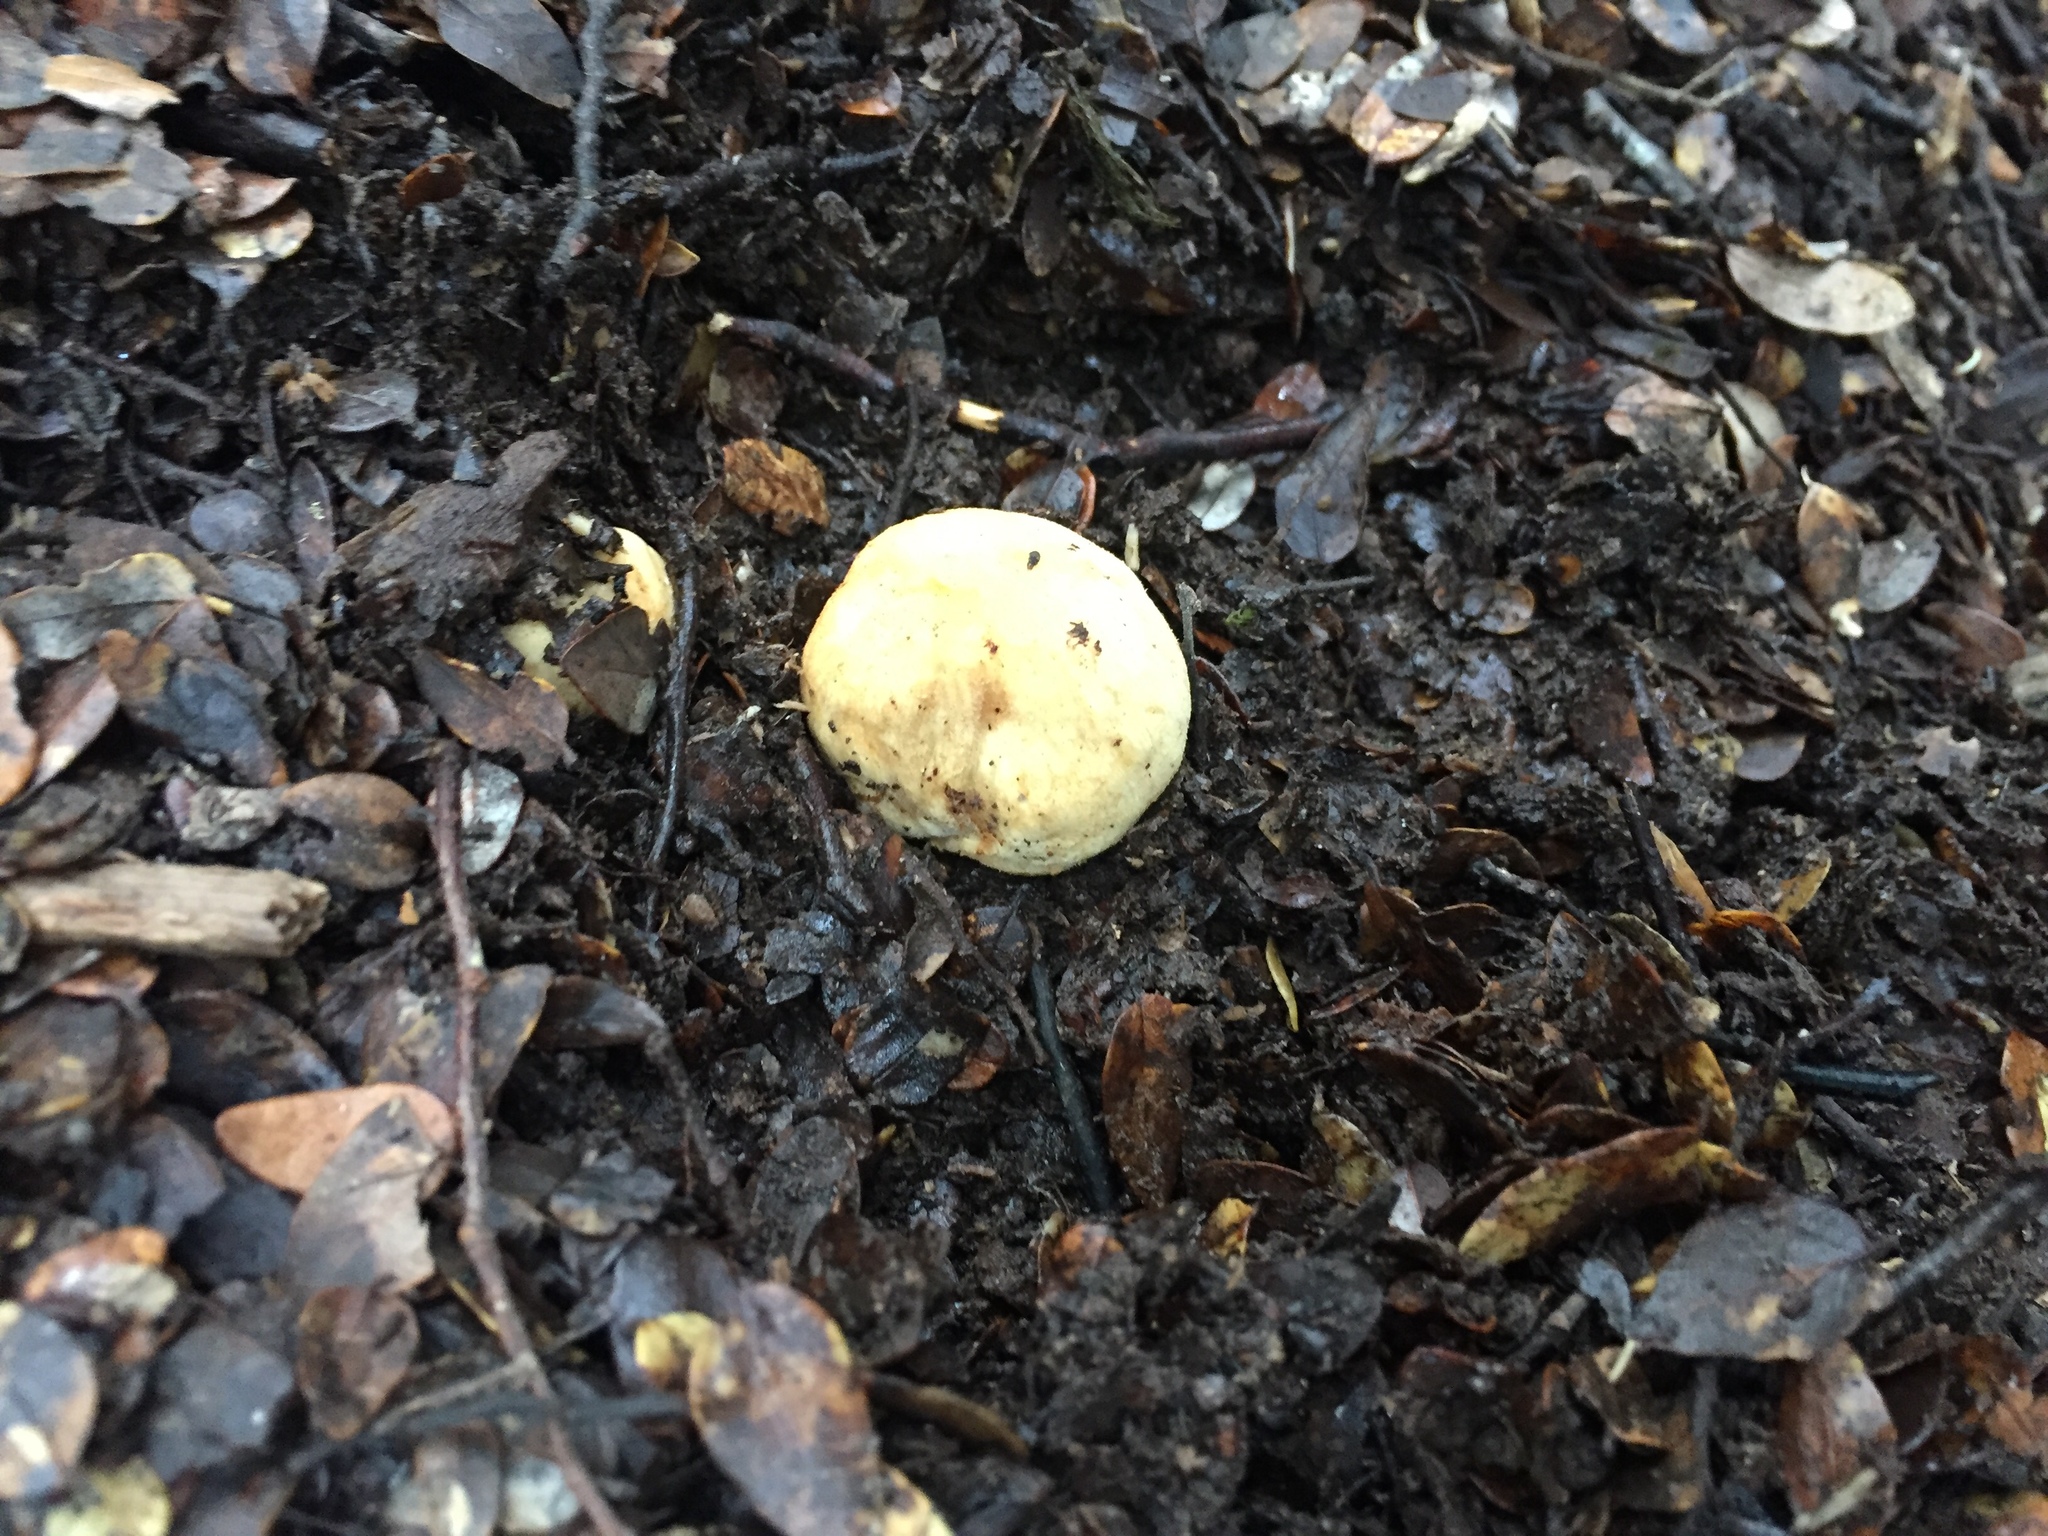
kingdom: Fungi
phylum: Basidiomycota
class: Agaricomycetes
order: Agaricales
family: Cortinariaceae
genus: Cortinarius
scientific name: Cortinarius cartilagineus
